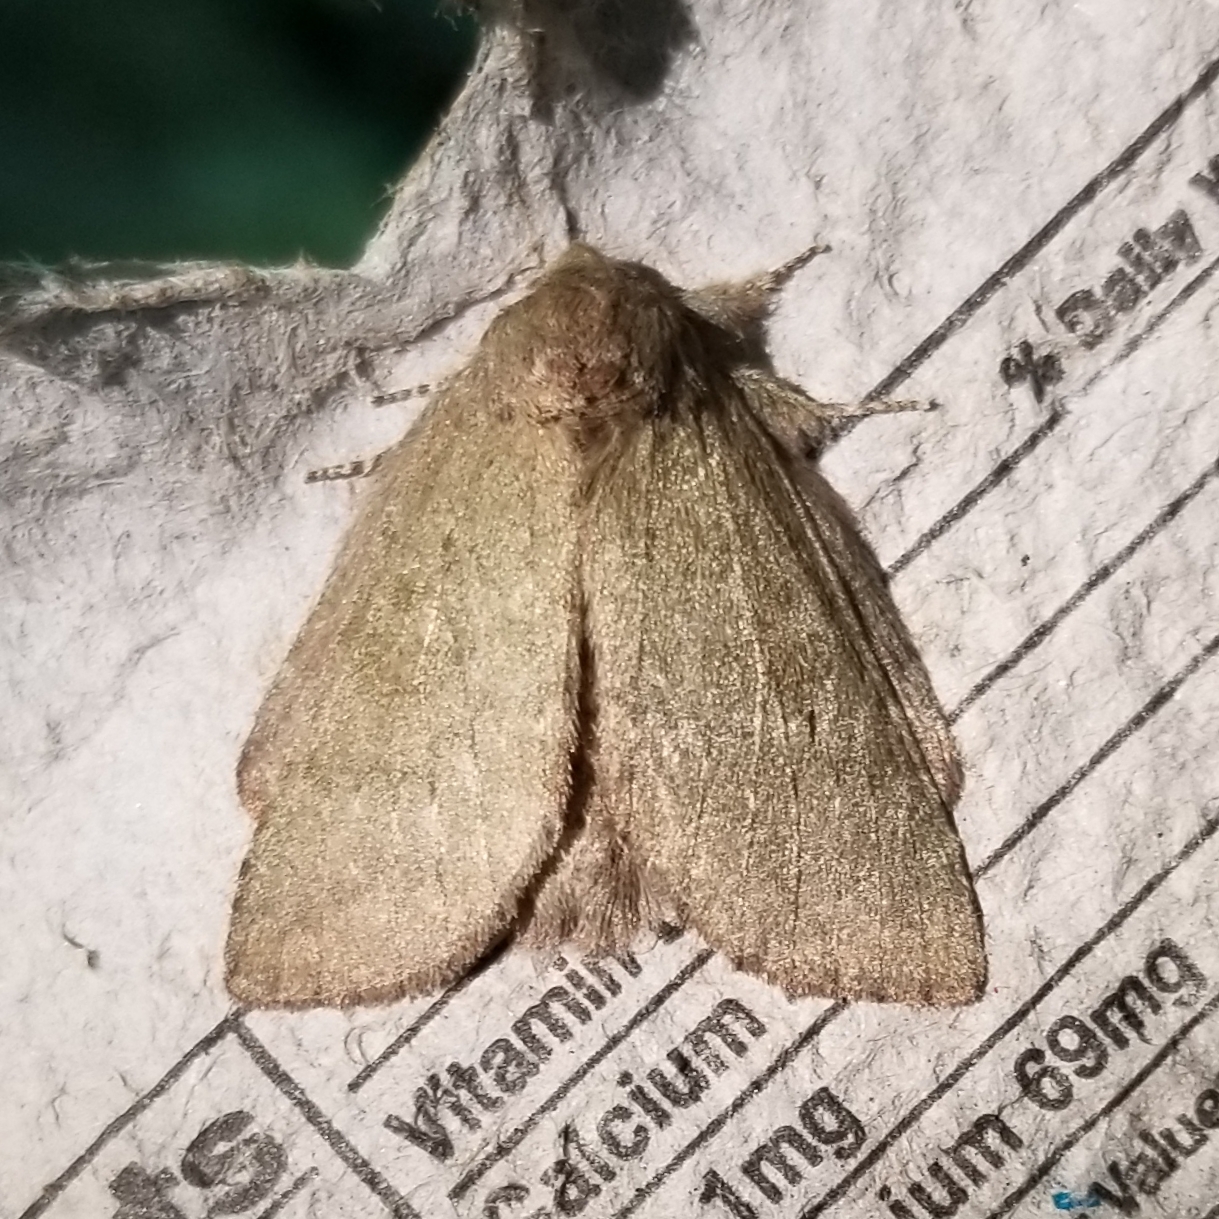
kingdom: Animalia
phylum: Arthropoda
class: Insecta
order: Lepidoptera
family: Notodontidae
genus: Misogada
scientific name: Misogada unicolor
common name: Drab prominent
